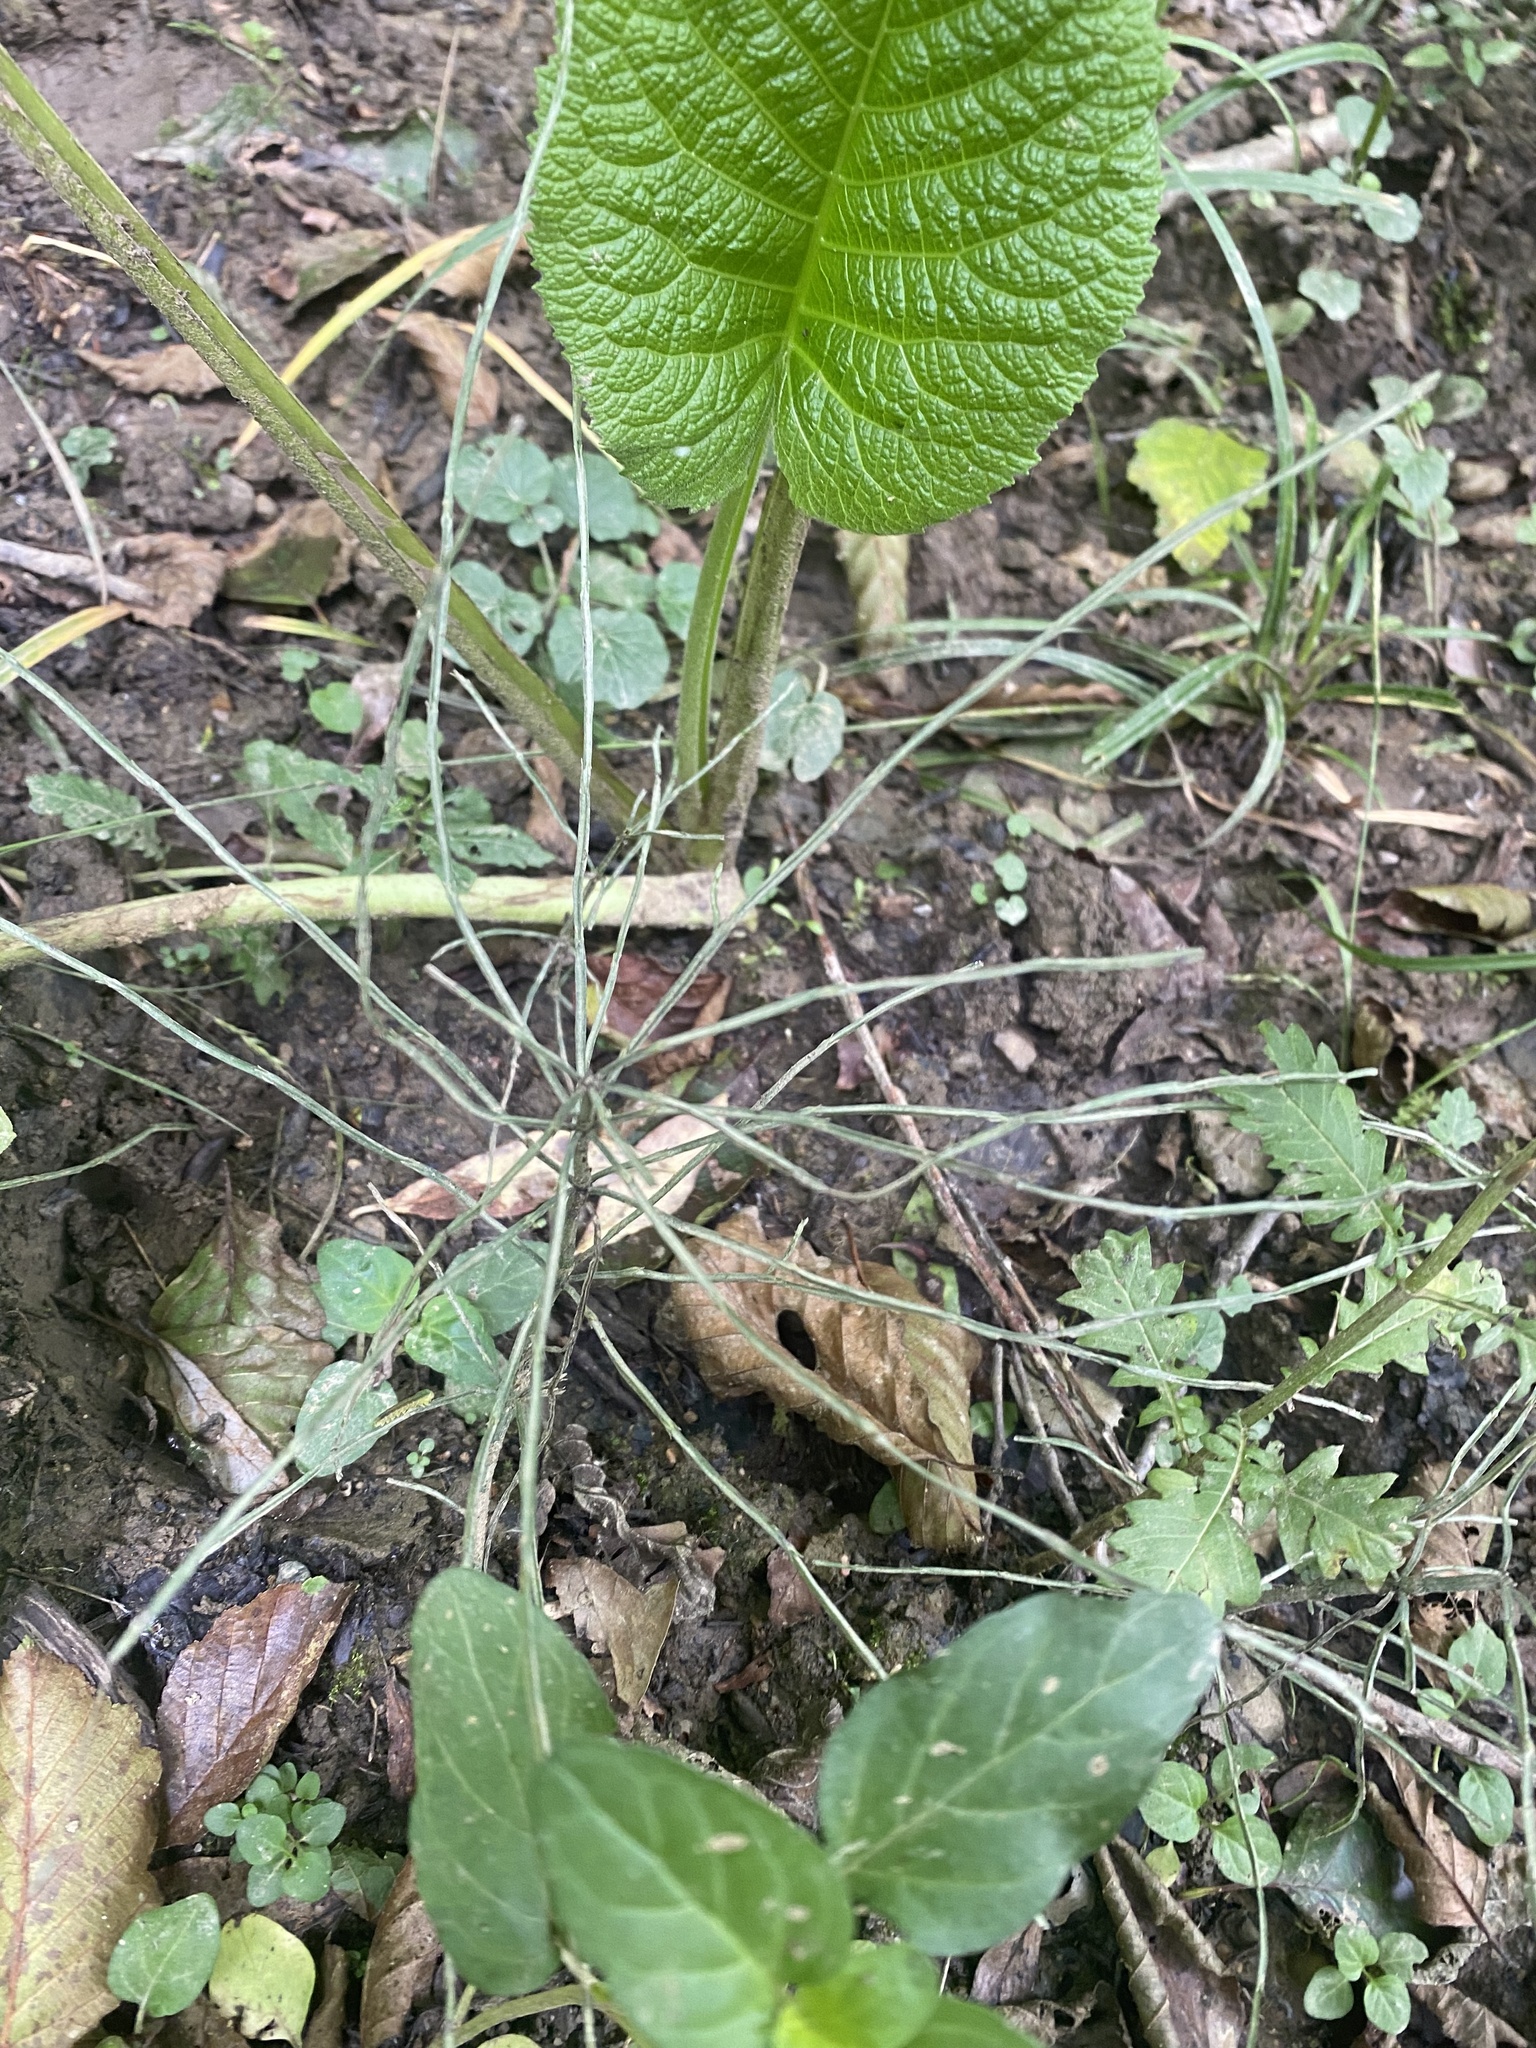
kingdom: Plantae
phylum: Tracheophyta
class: Polypodiopsida
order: Equisetales
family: Equisetaceae
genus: Equisetum
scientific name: Equisetum arvense
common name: Field horsetail
